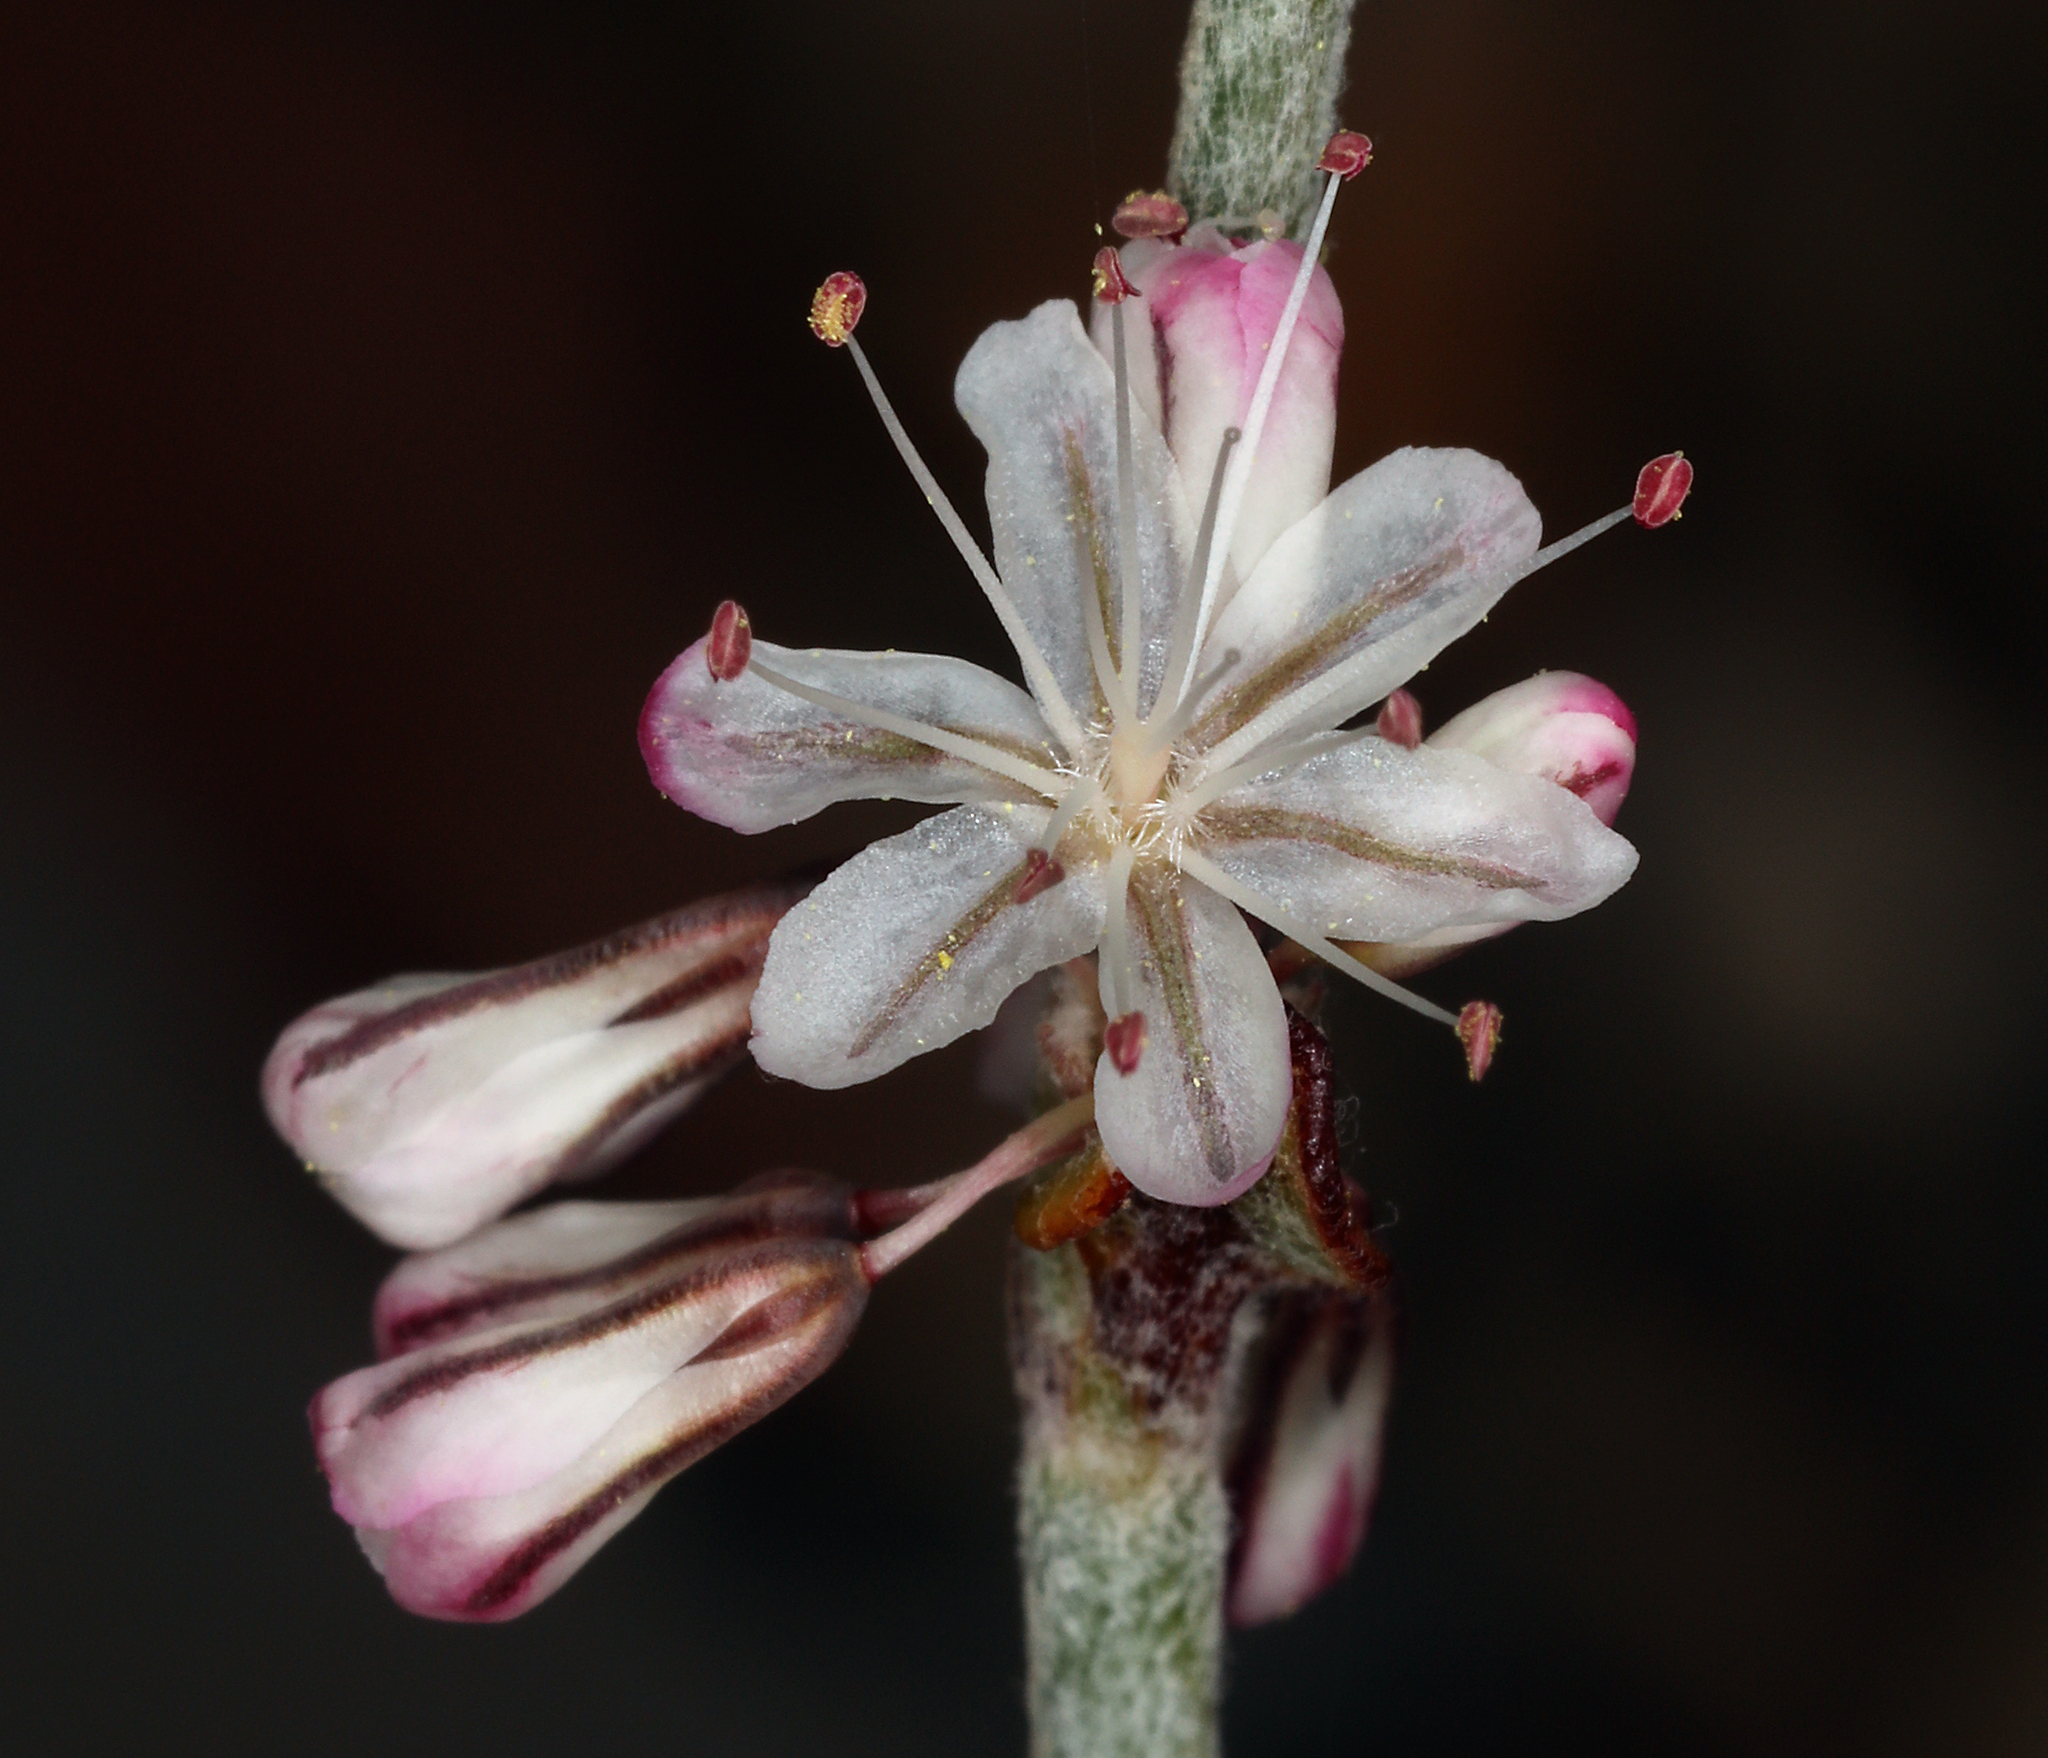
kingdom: Plantae
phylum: Tracheophyta
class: Magnoliopsida
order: Caryophyllales
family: Polygonaceae
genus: Eriogonum
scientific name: Eriogonum panamintense
